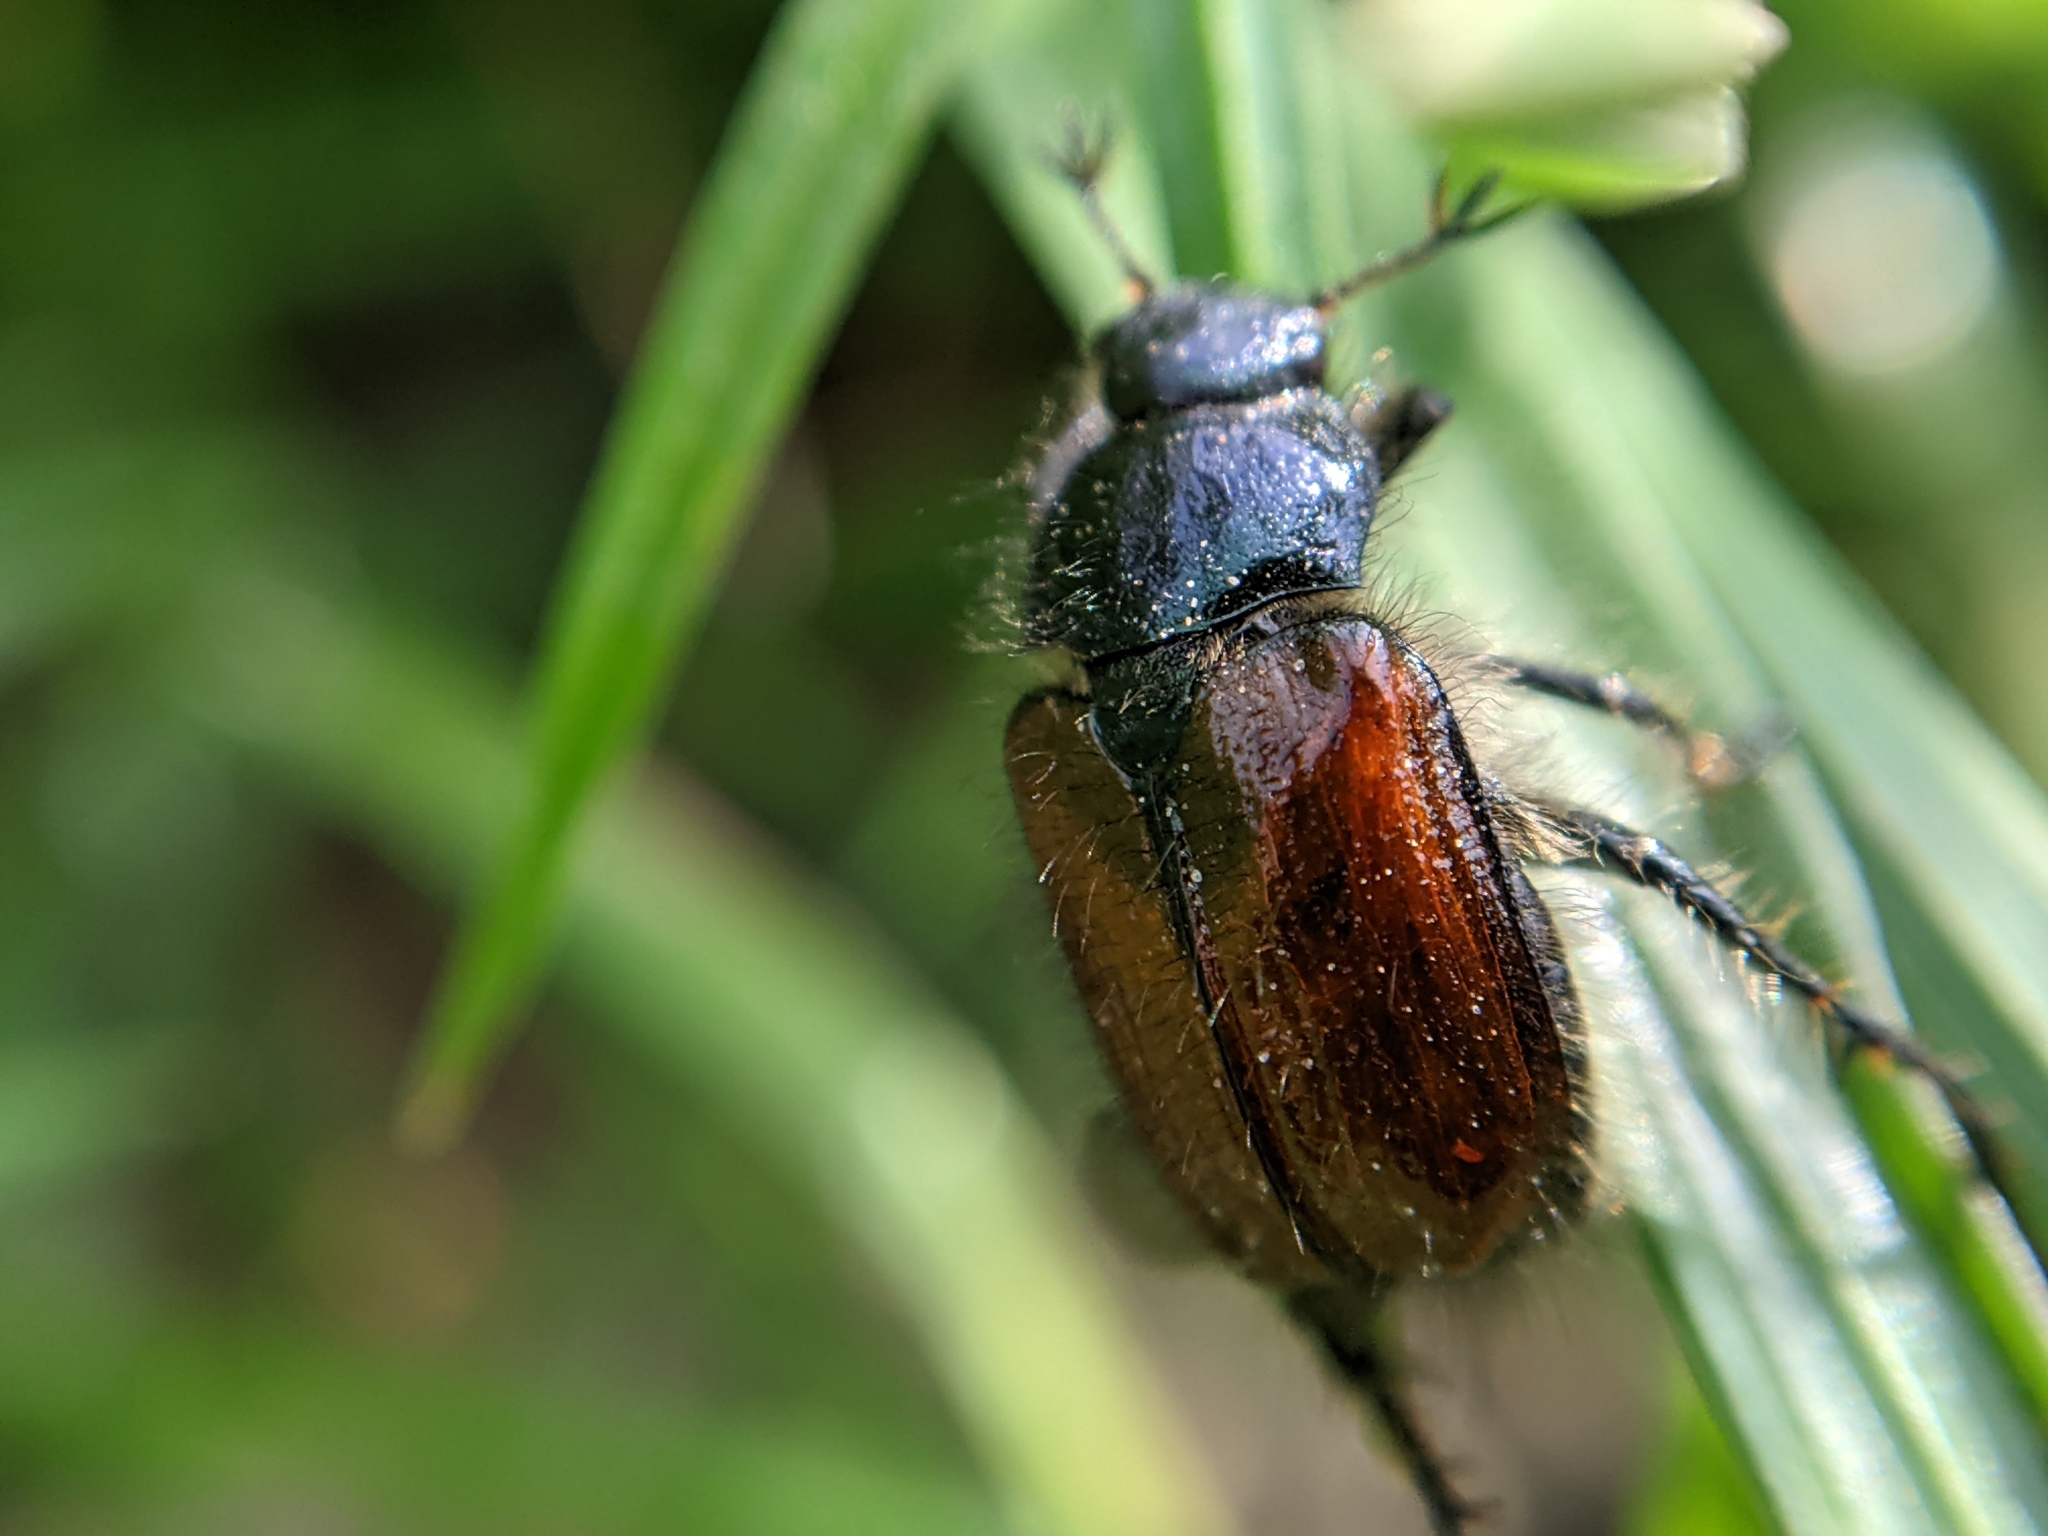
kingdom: Animalia
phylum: Arthropoda
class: Insecta
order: Coleoptera
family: Scarabaeidae
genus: Phyllopertha
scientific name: Phyllopertha horticola
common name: Garden chafer
